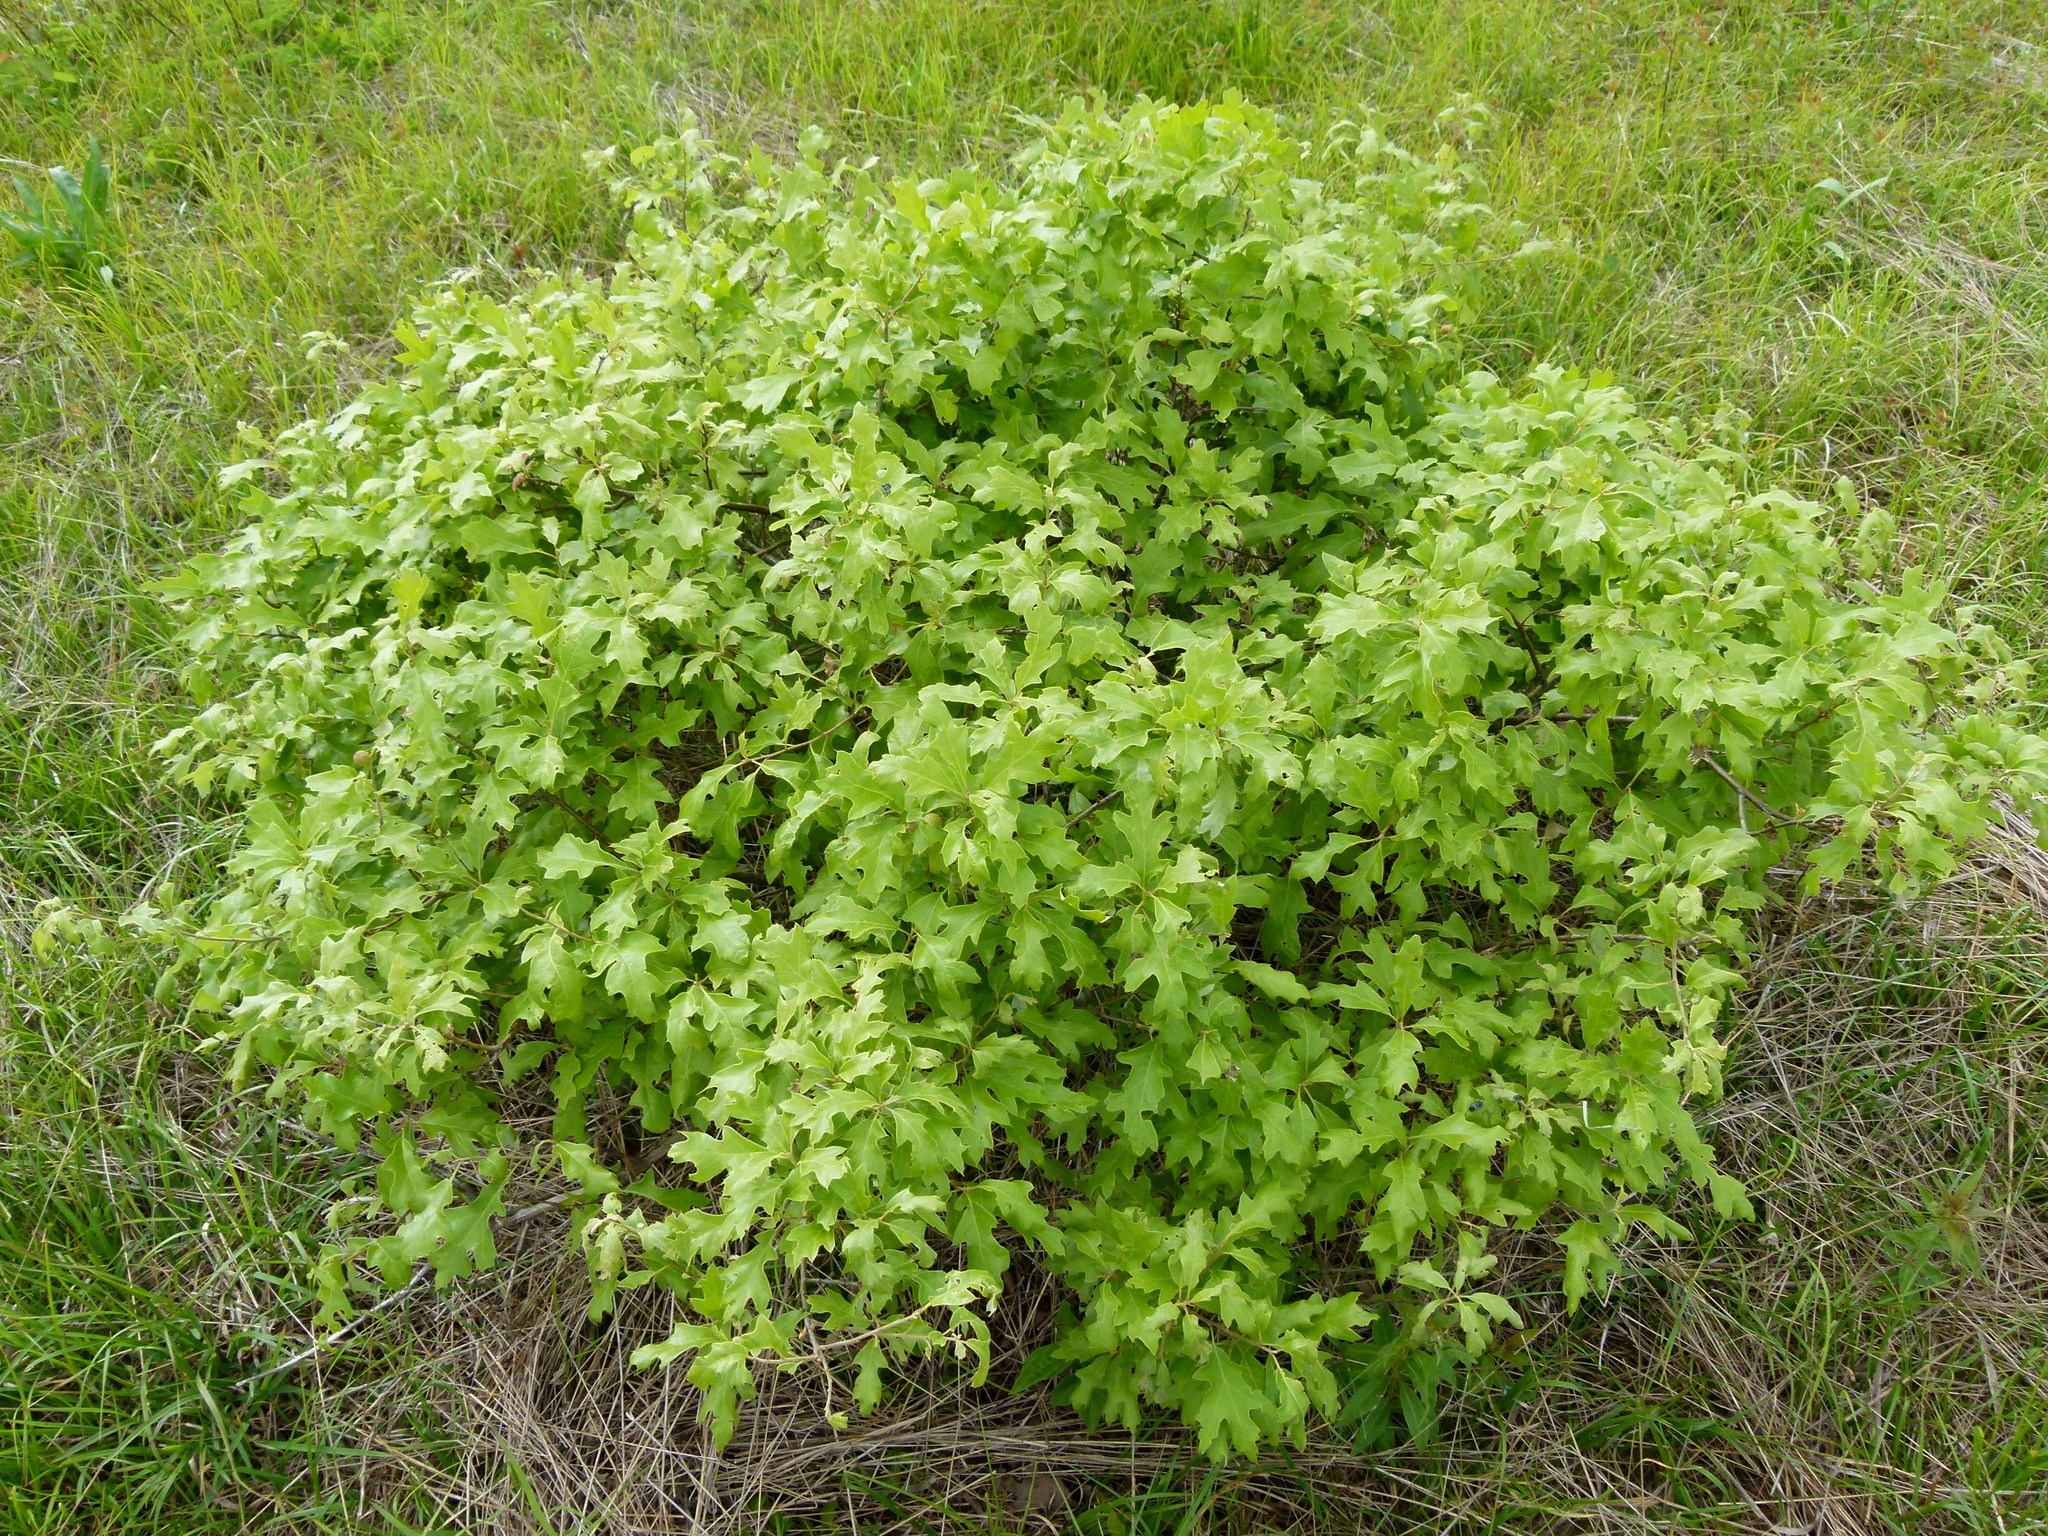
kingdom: Plantae
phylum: Tracheophyta
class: Magnoliopsida
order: Fagales
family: Fagaceae
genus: Quercus
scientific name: Quercus ilicifolia
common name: Bear oak
